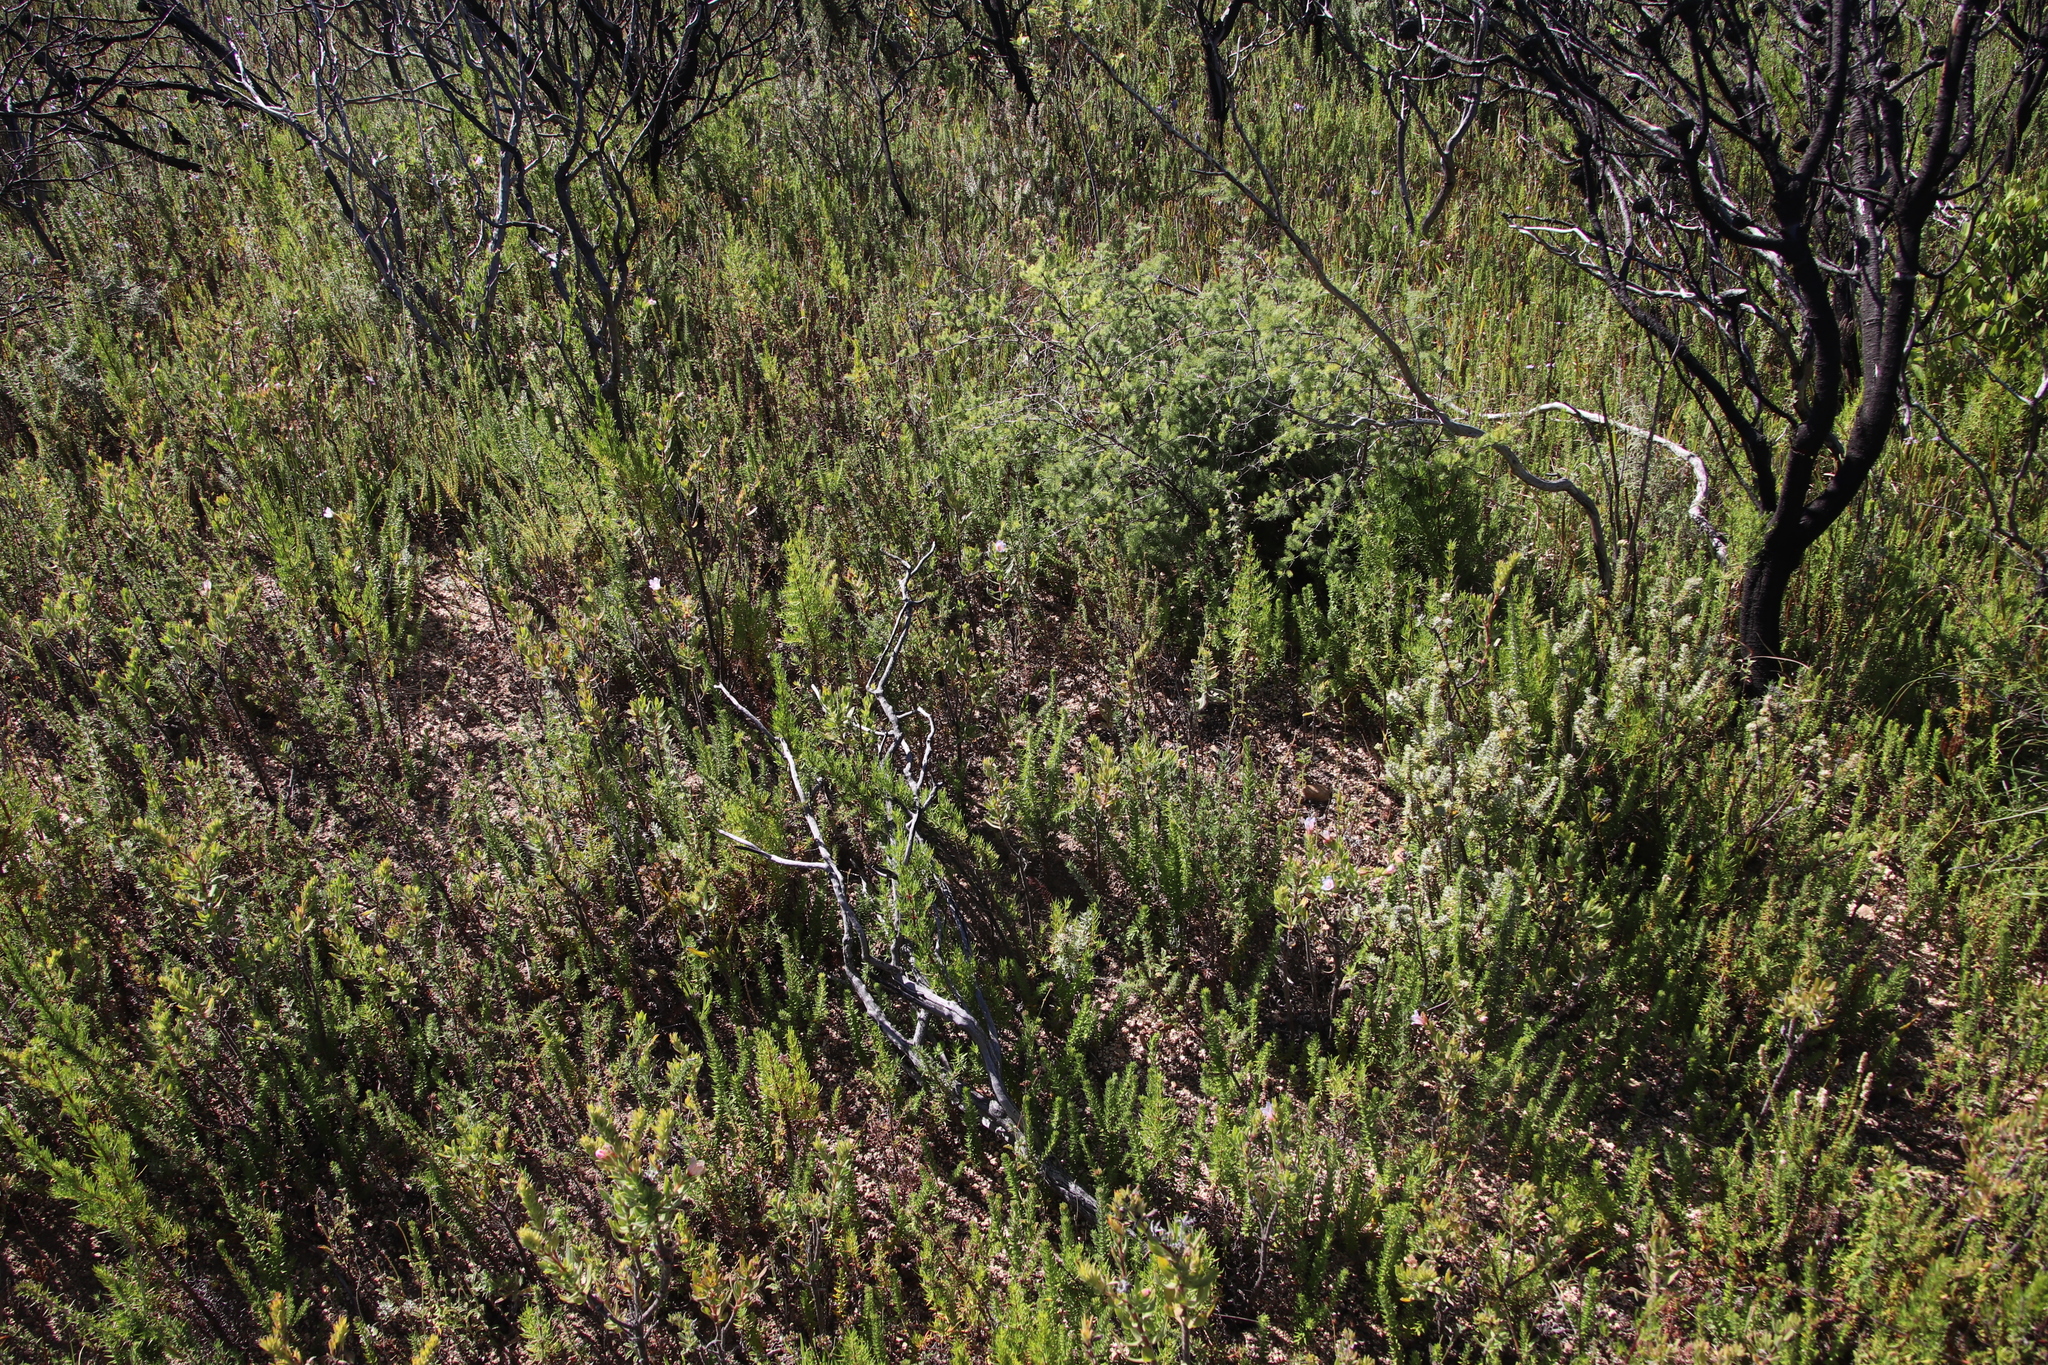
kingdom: Plantae
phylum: Tracheophyta
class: Magnoliopsida
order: Boraginales
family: Boraginaceae
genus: Lobostemon
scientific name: Lobostemon fruticosus
